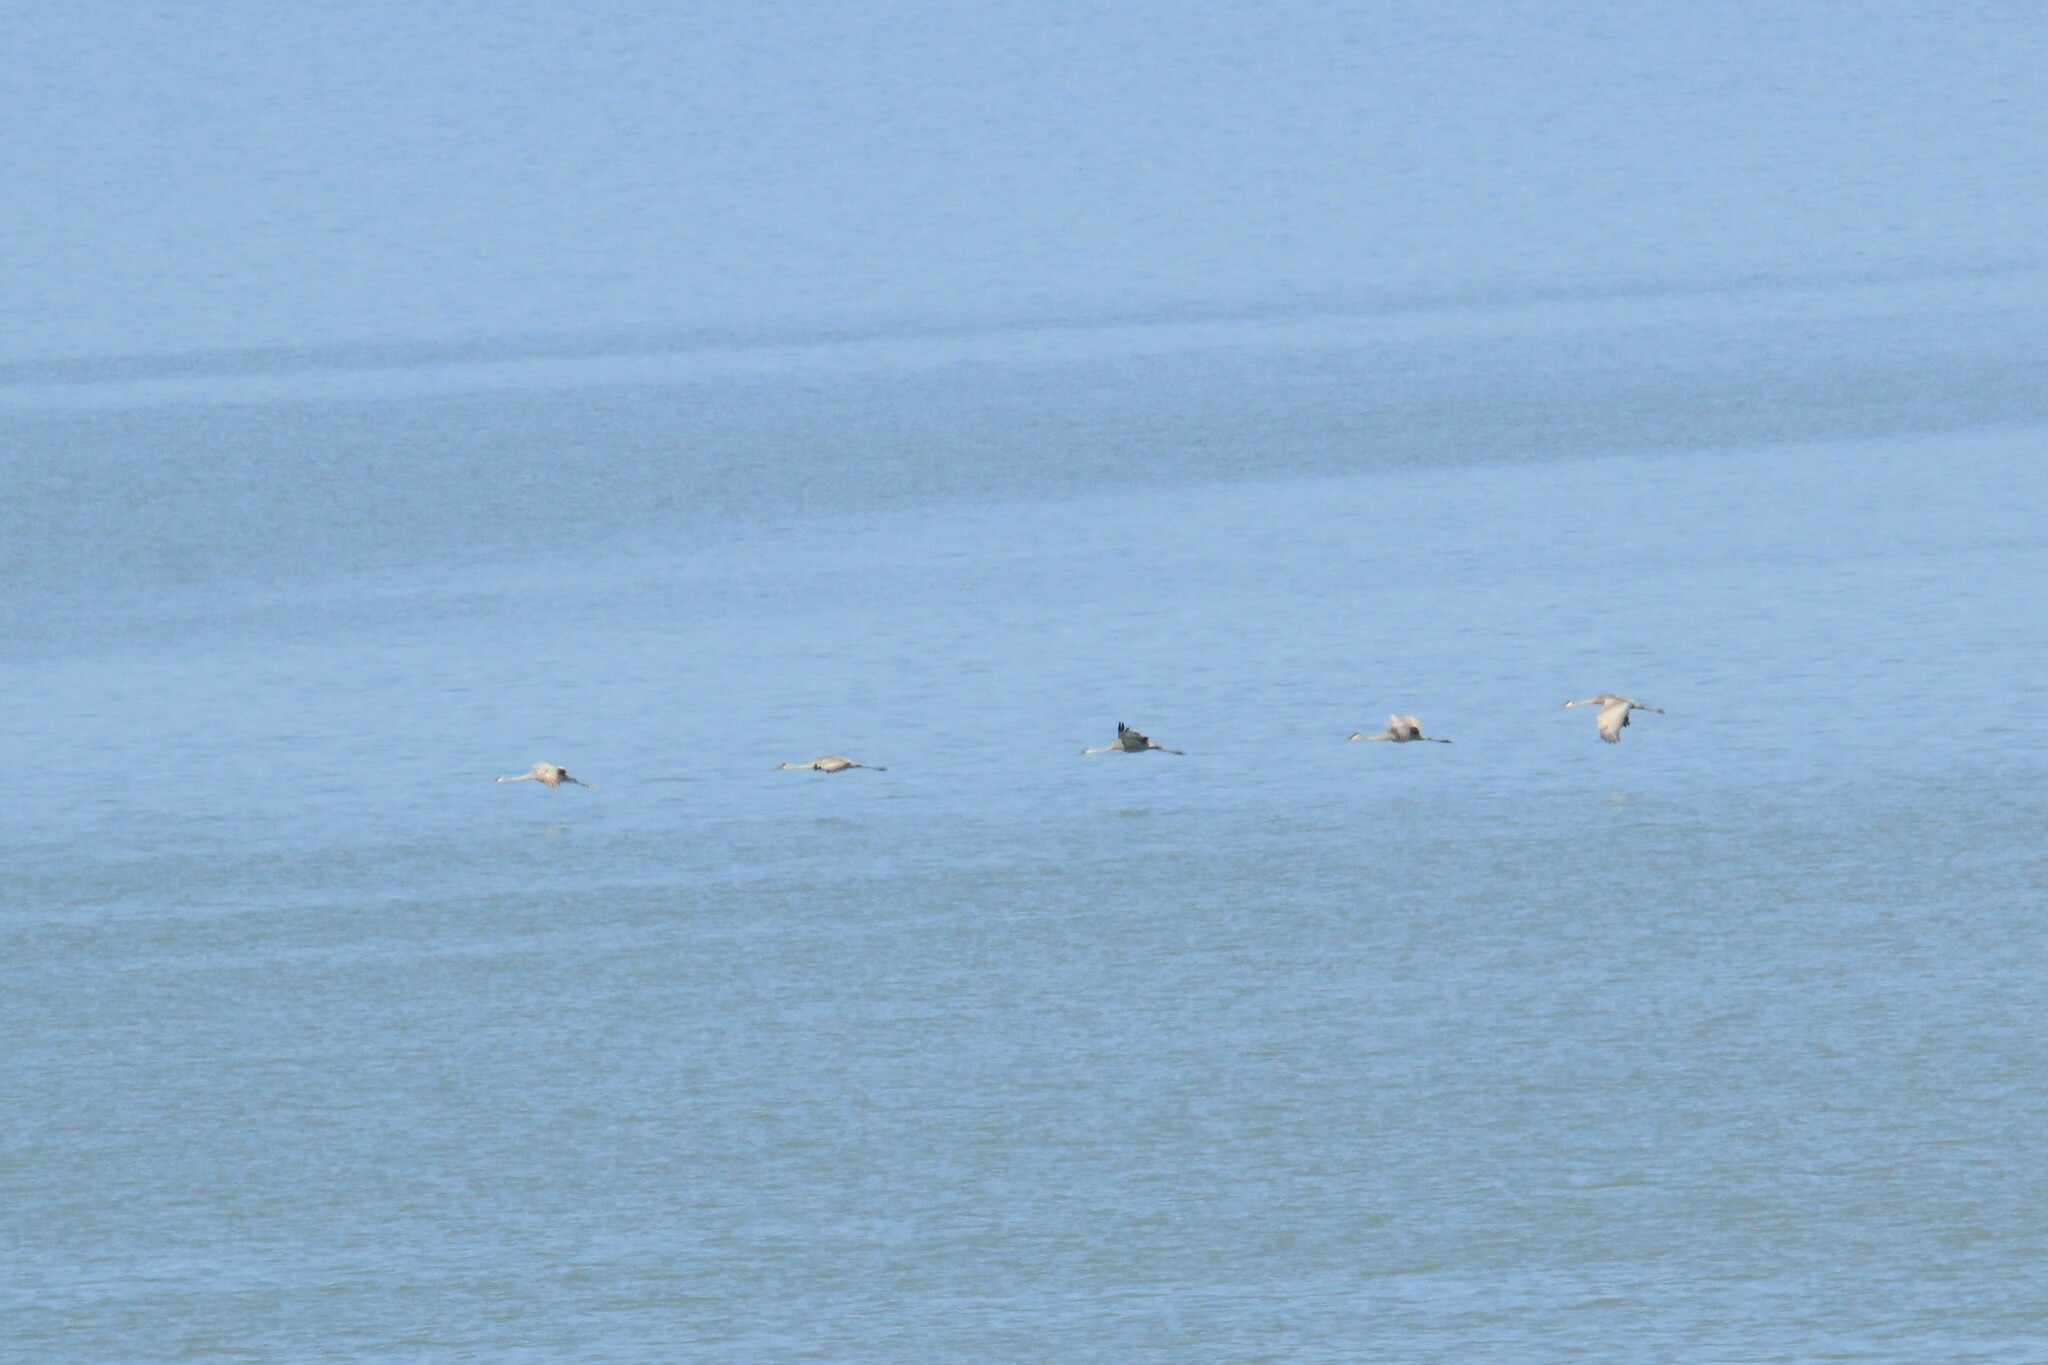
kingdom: Animalia
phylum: Chordata
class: Aves
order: Gruiformes
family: Gruidae
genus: Grus
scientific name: Grus canadensis
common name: Sandhill crane
